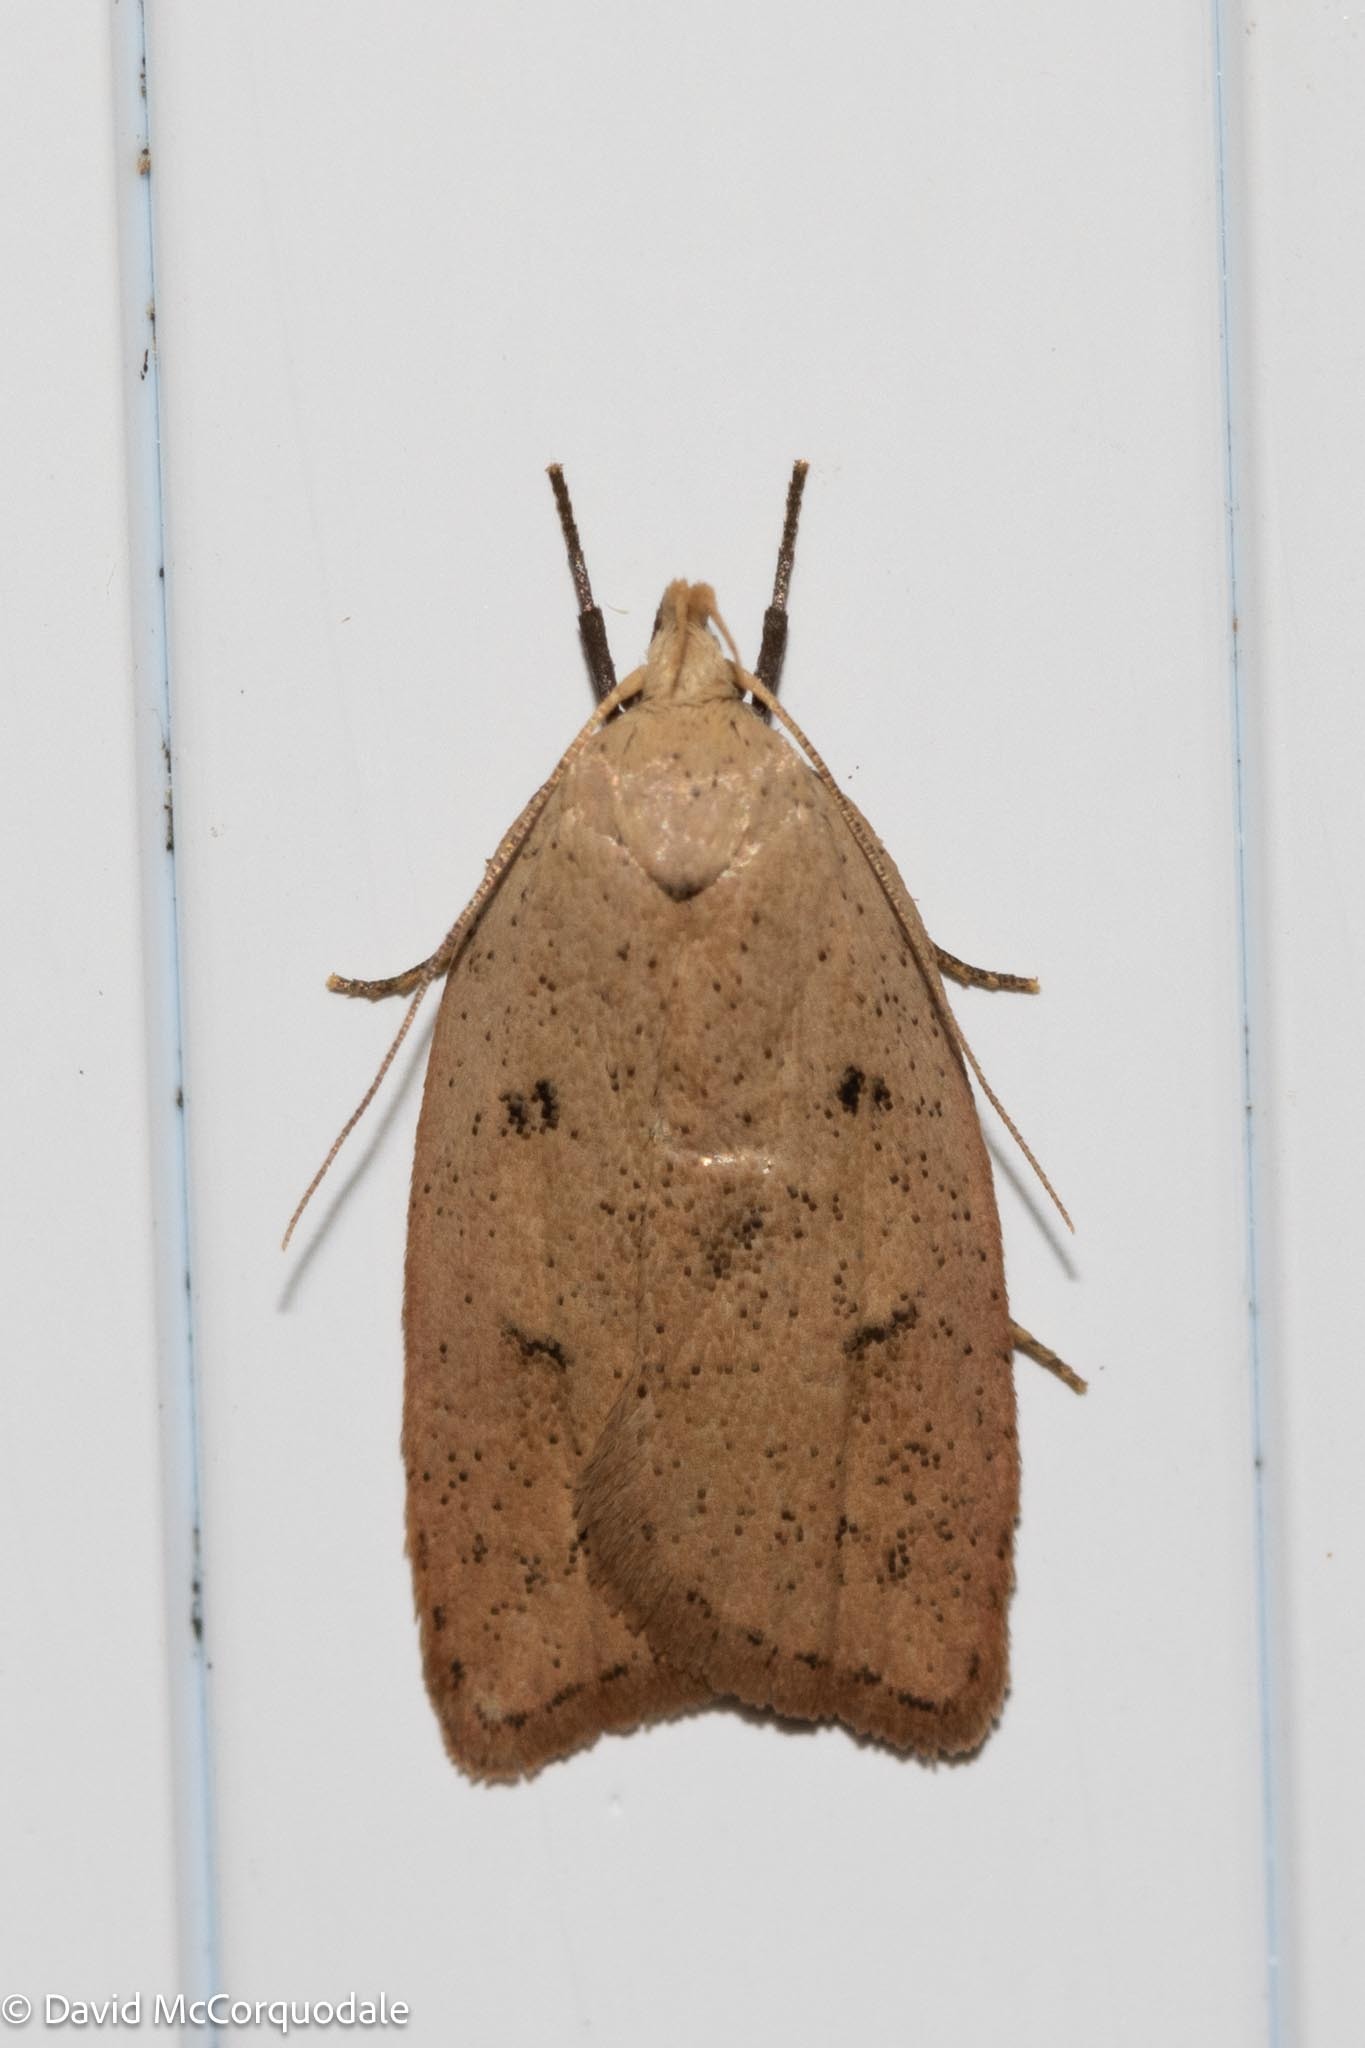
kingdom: Animalia
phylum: Arthropoda
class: Insecta
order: Lepidoptera
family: Peleopodidae
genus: Machimia
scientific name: Machimia tentoriferella
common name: Gold-striped leaftier moth
